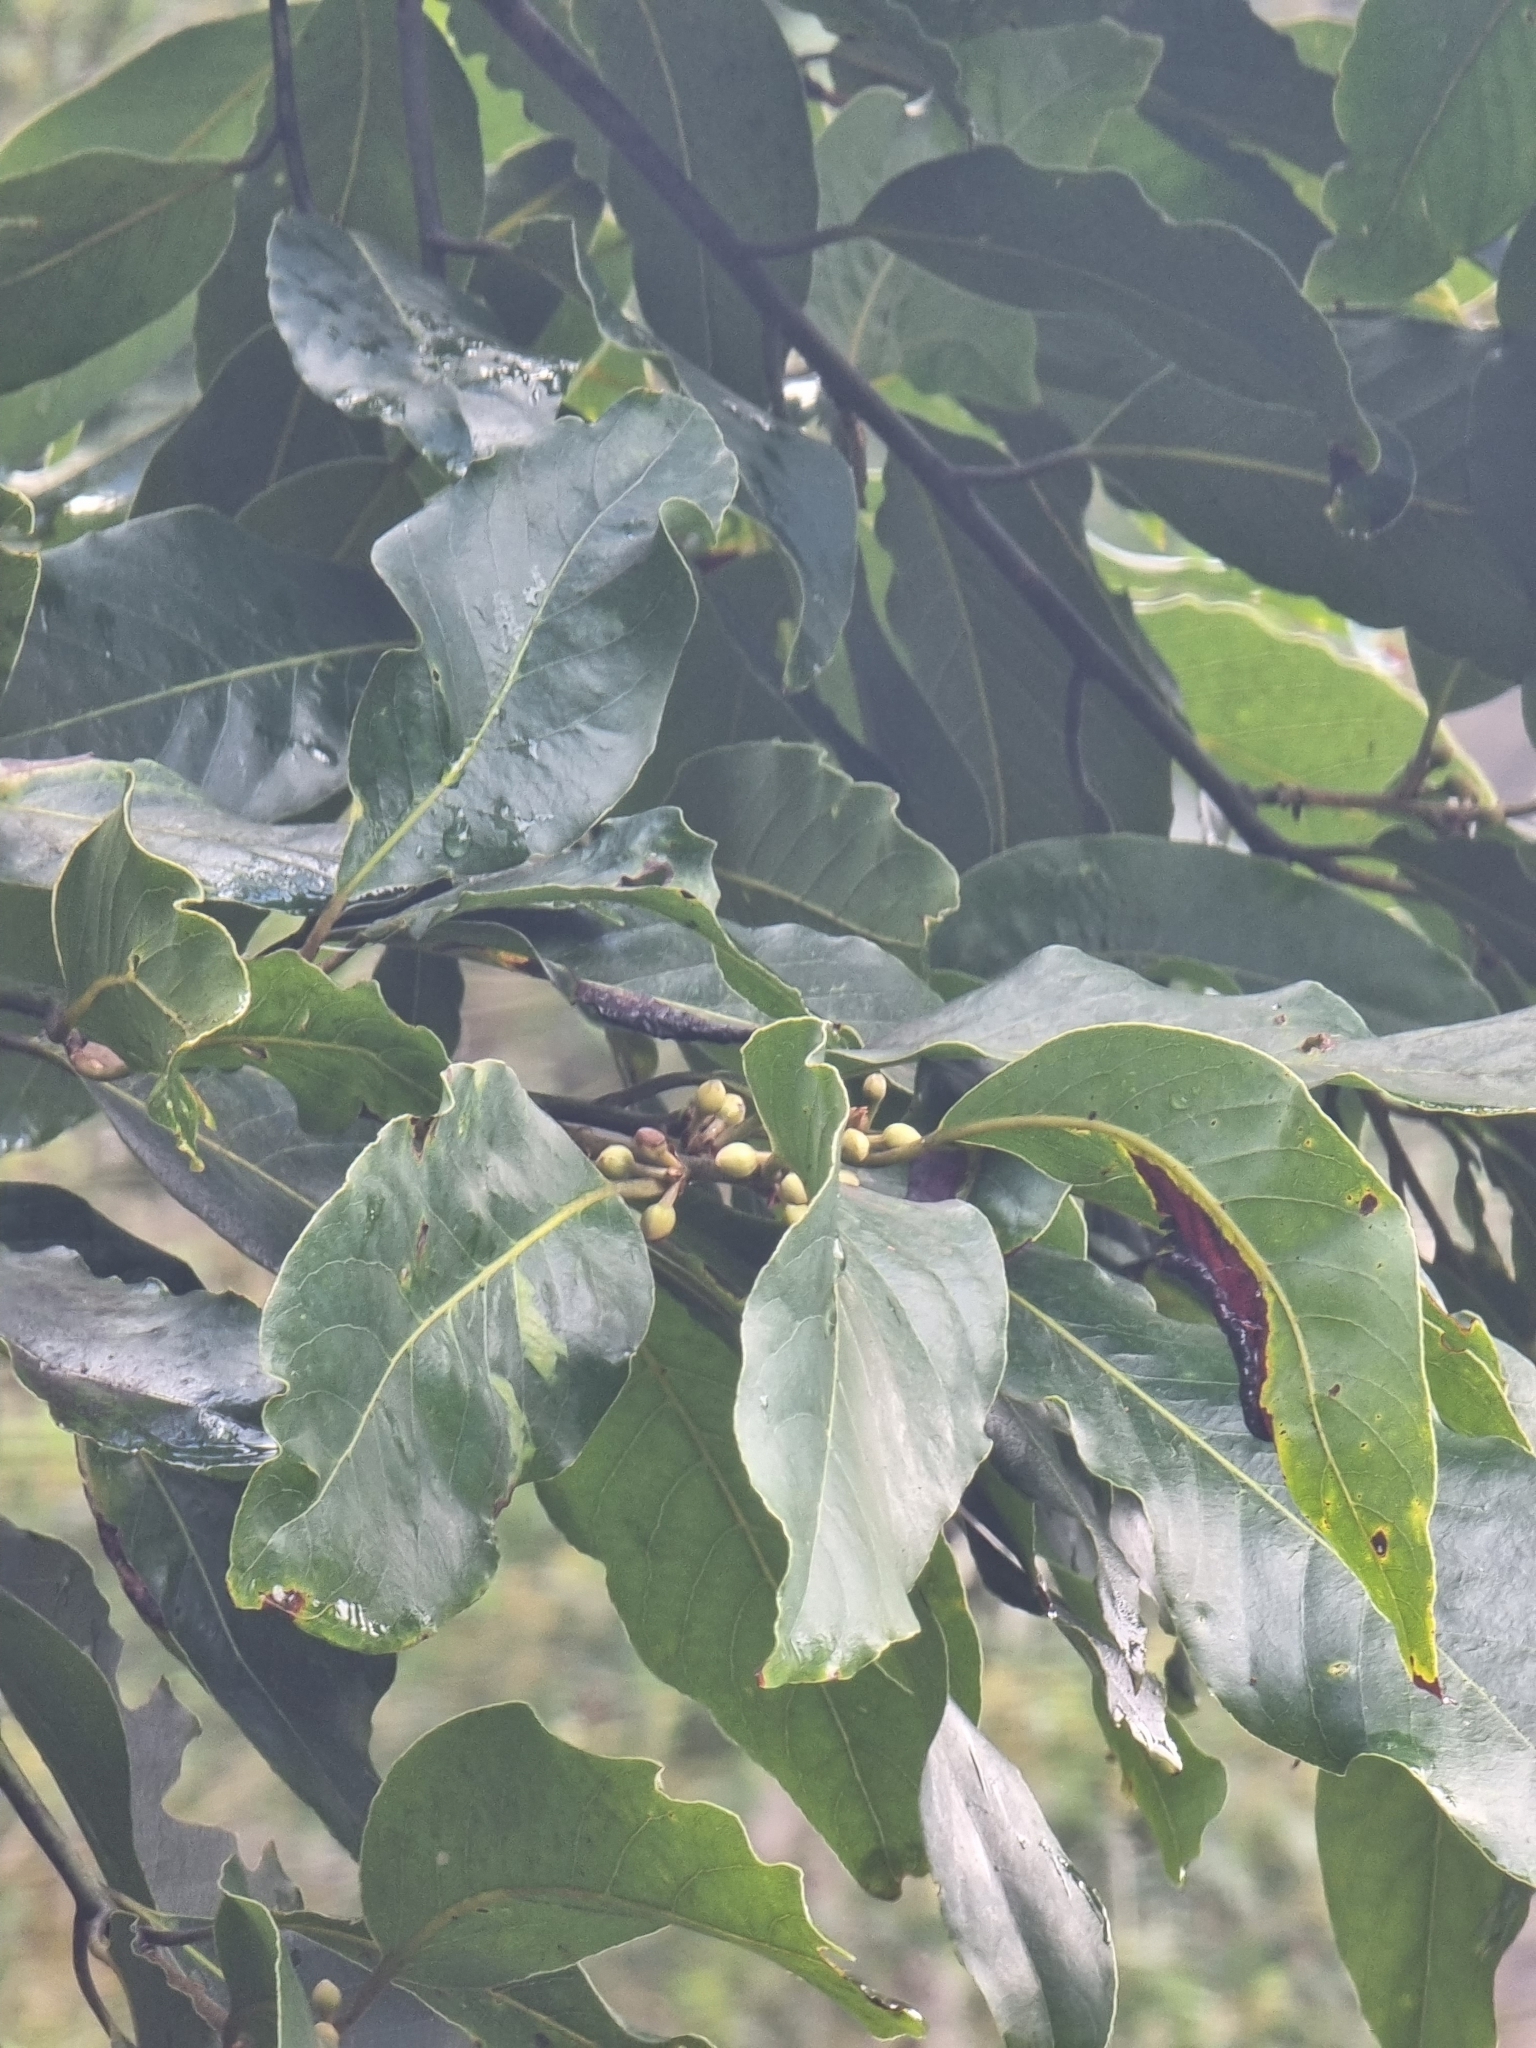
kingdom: Plantae
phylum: Tracheophyta
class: Magnoliopsida
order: Laurales
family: Lauraceae
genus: Laurus
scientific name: Laurus novocanariensis
